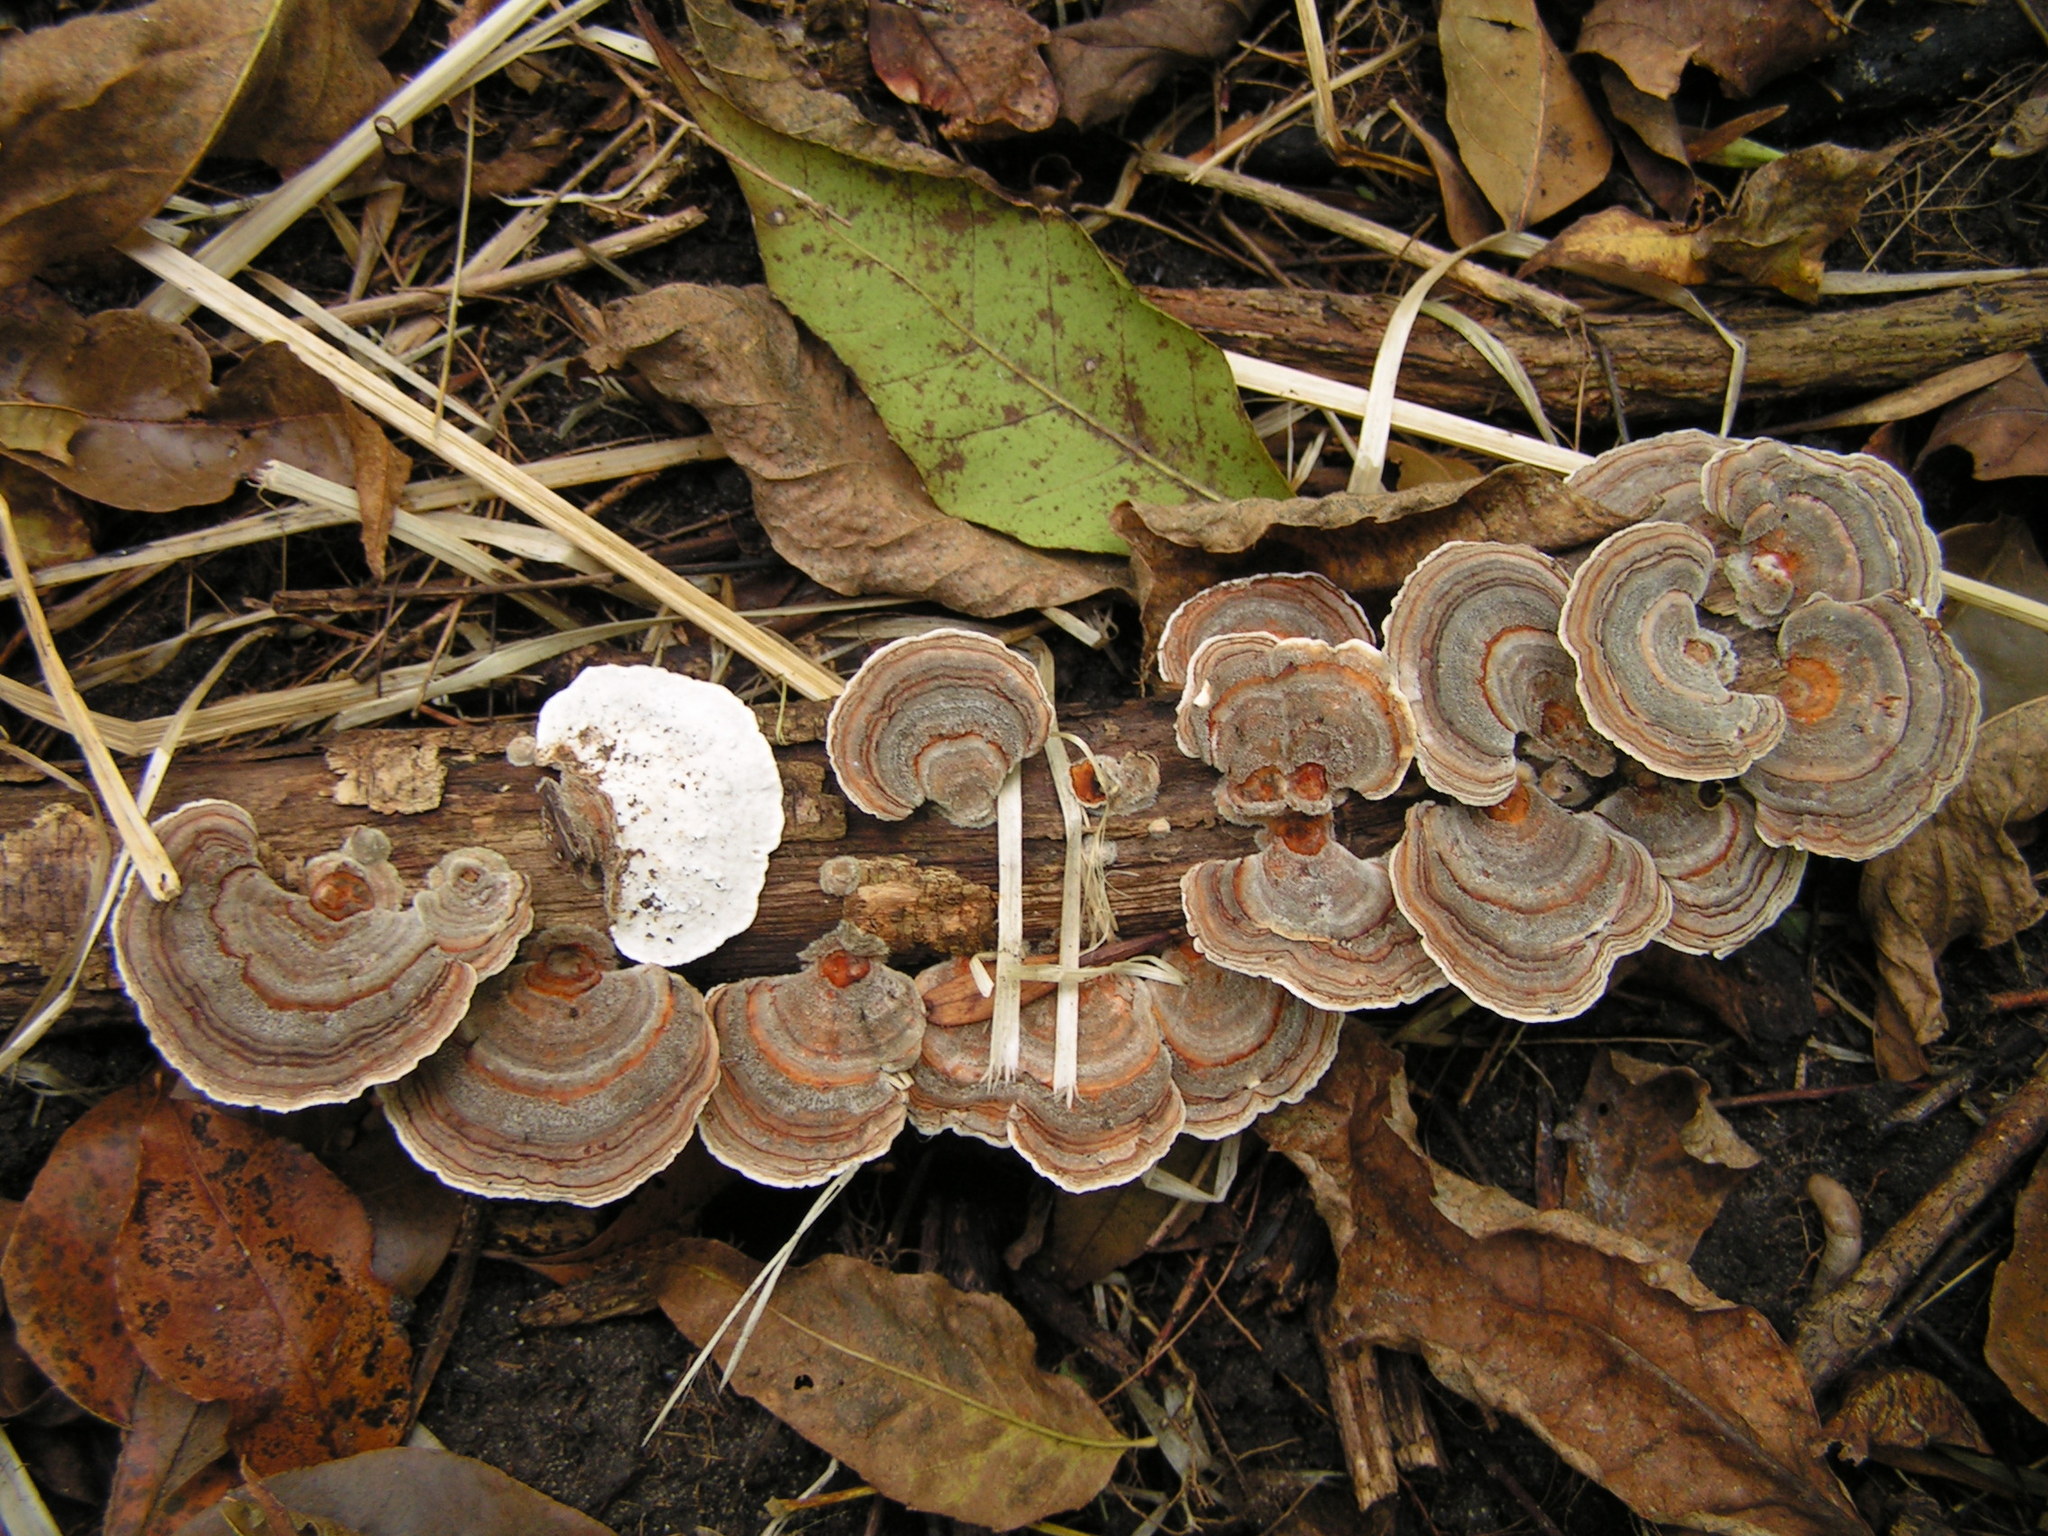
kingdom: Fungi
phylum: Basidiomycota
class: Agaricomycetes
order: Polyporales
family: Polyporaceae
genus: Trametes
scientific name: Trametes versicolor
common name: Turkeytail
